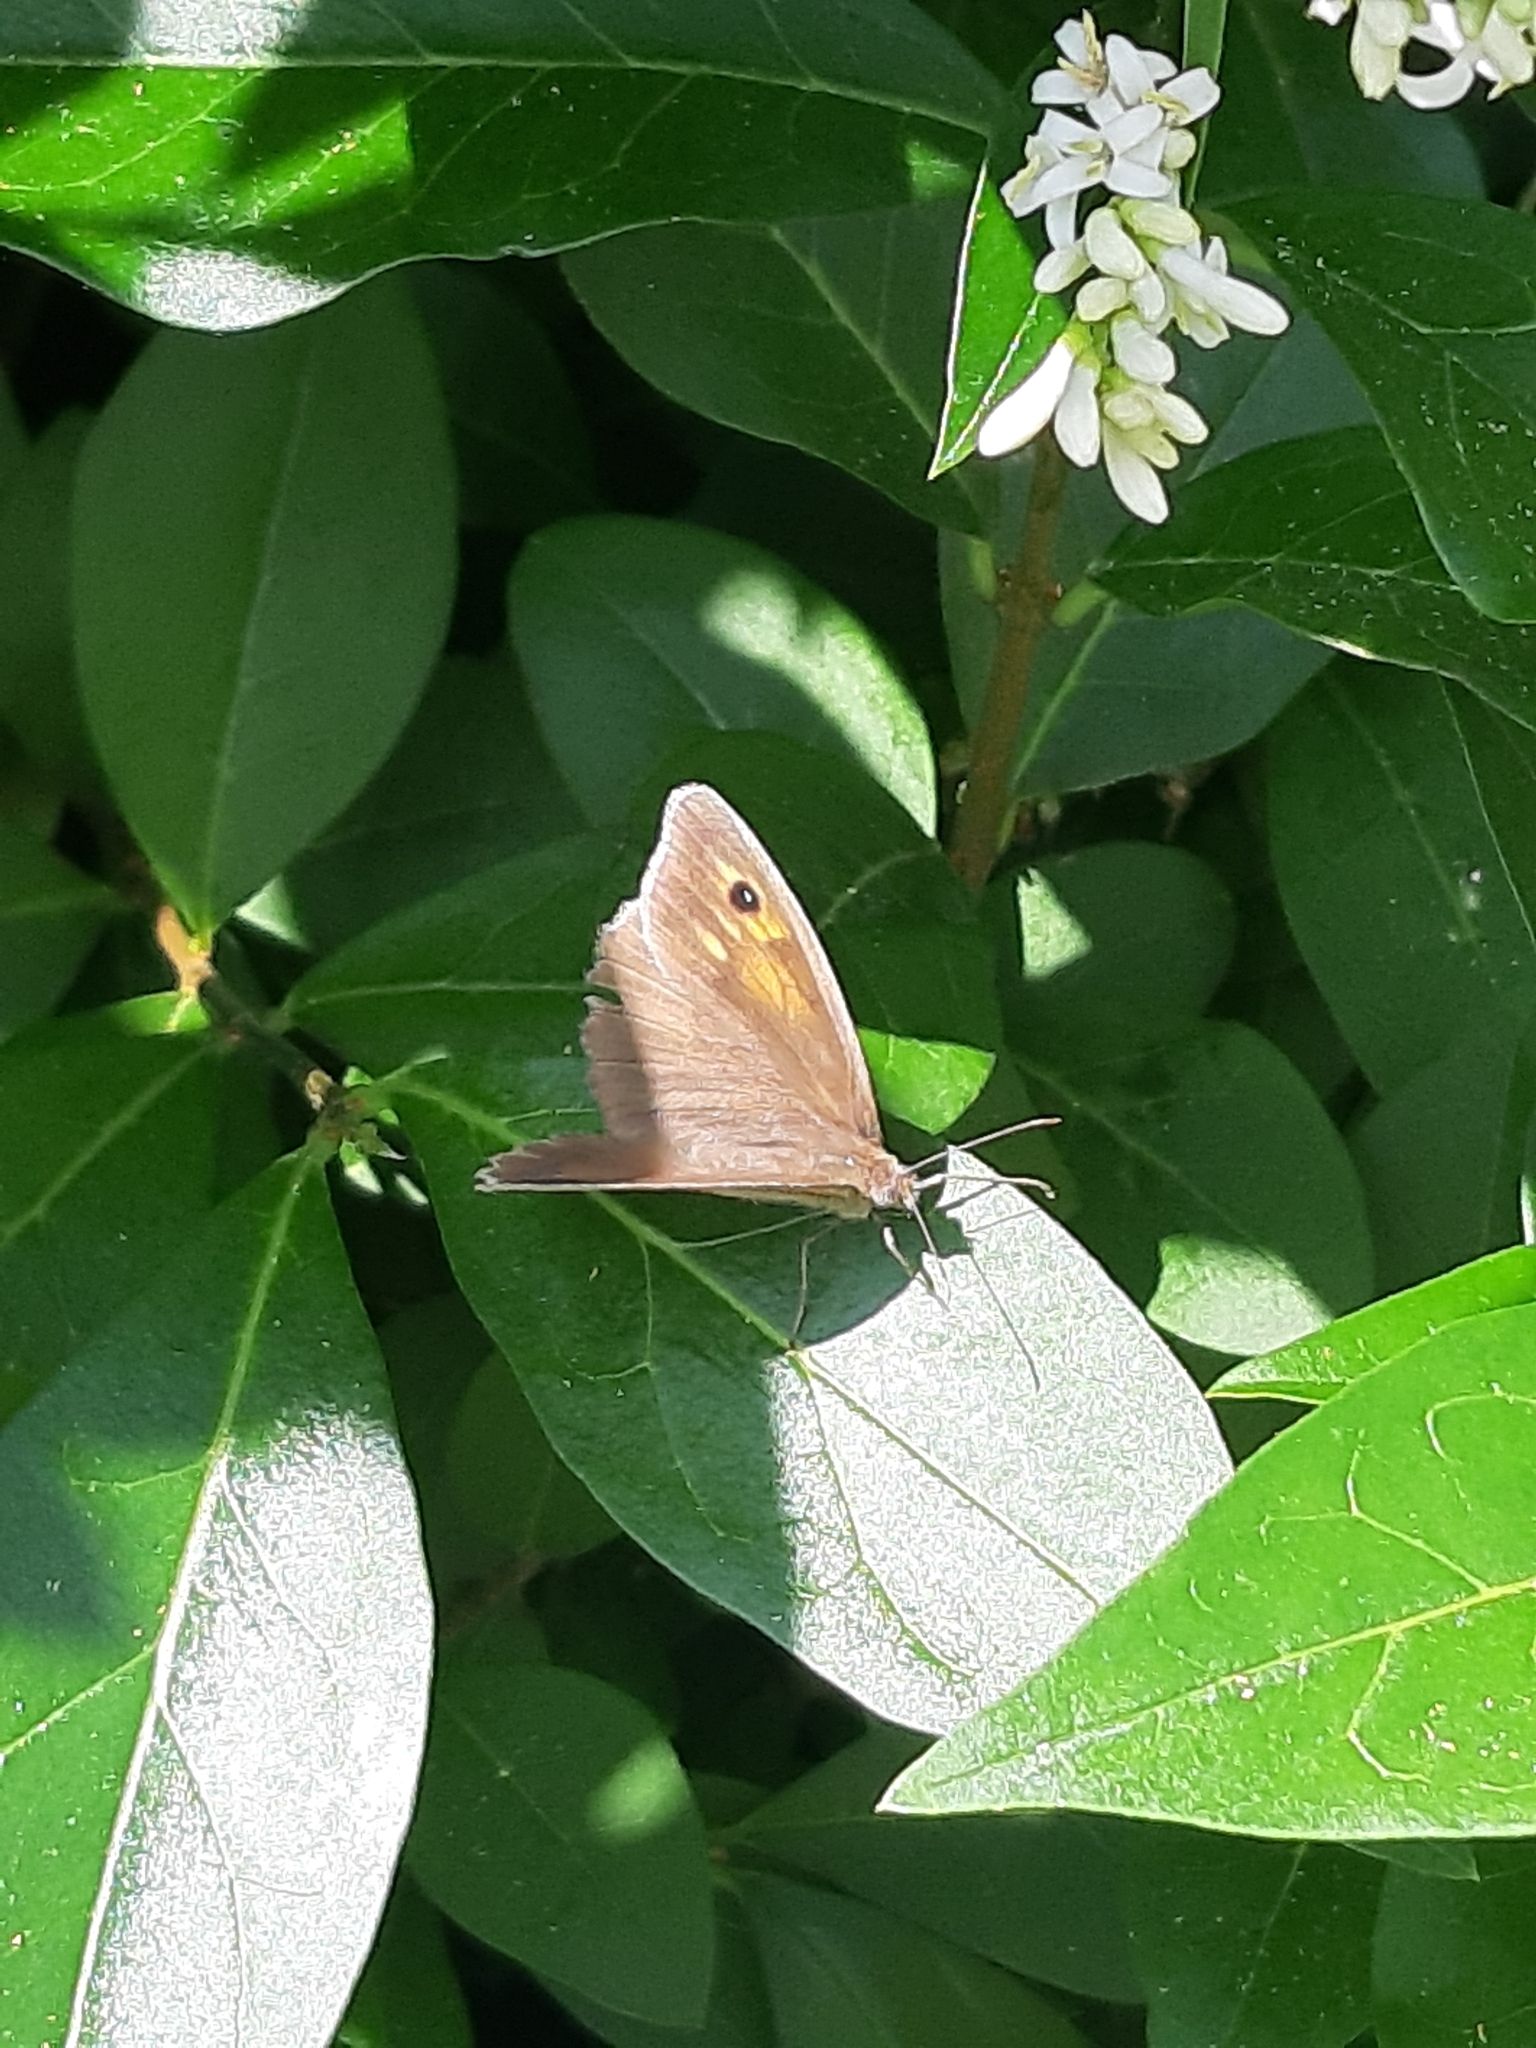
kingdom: Animalia
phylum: Arthropoda
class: Insecta
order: Lepidoptera
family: Nymphalidae
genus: Maniola
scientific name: Maniola jurtina
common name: Meadow brown
